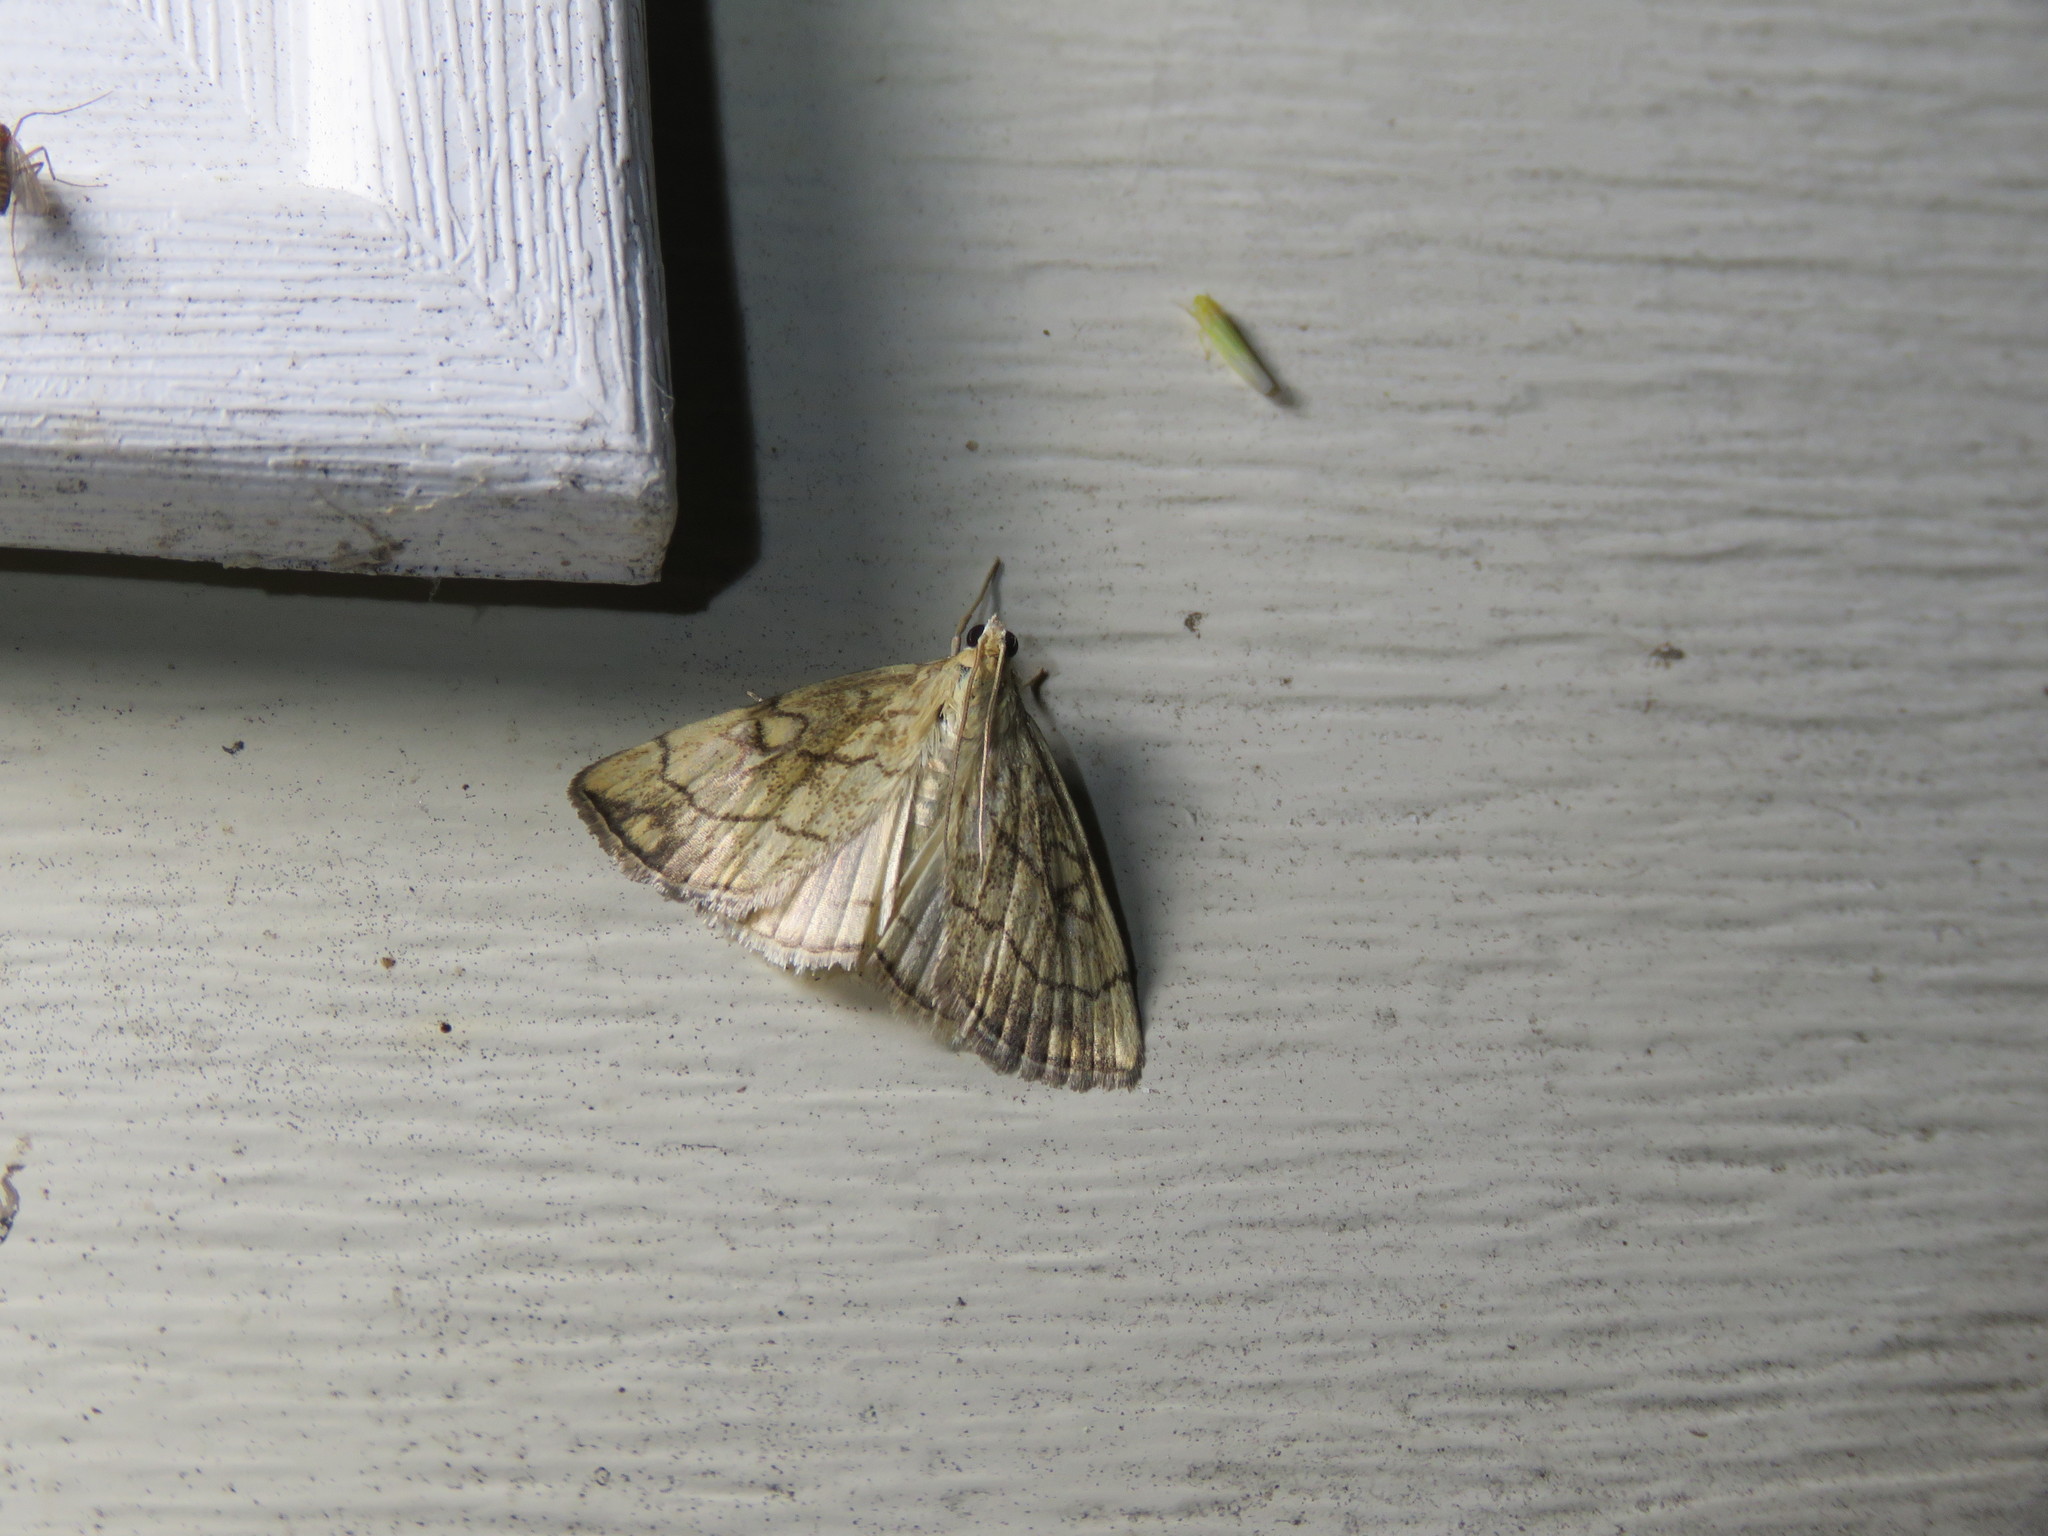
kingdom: Animalia
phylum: Arthropoda
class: Insecta
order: Lepidoptera
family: Crambidae
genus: Evergestis
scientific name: Evergestis pallidata
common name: Chequered pearl
